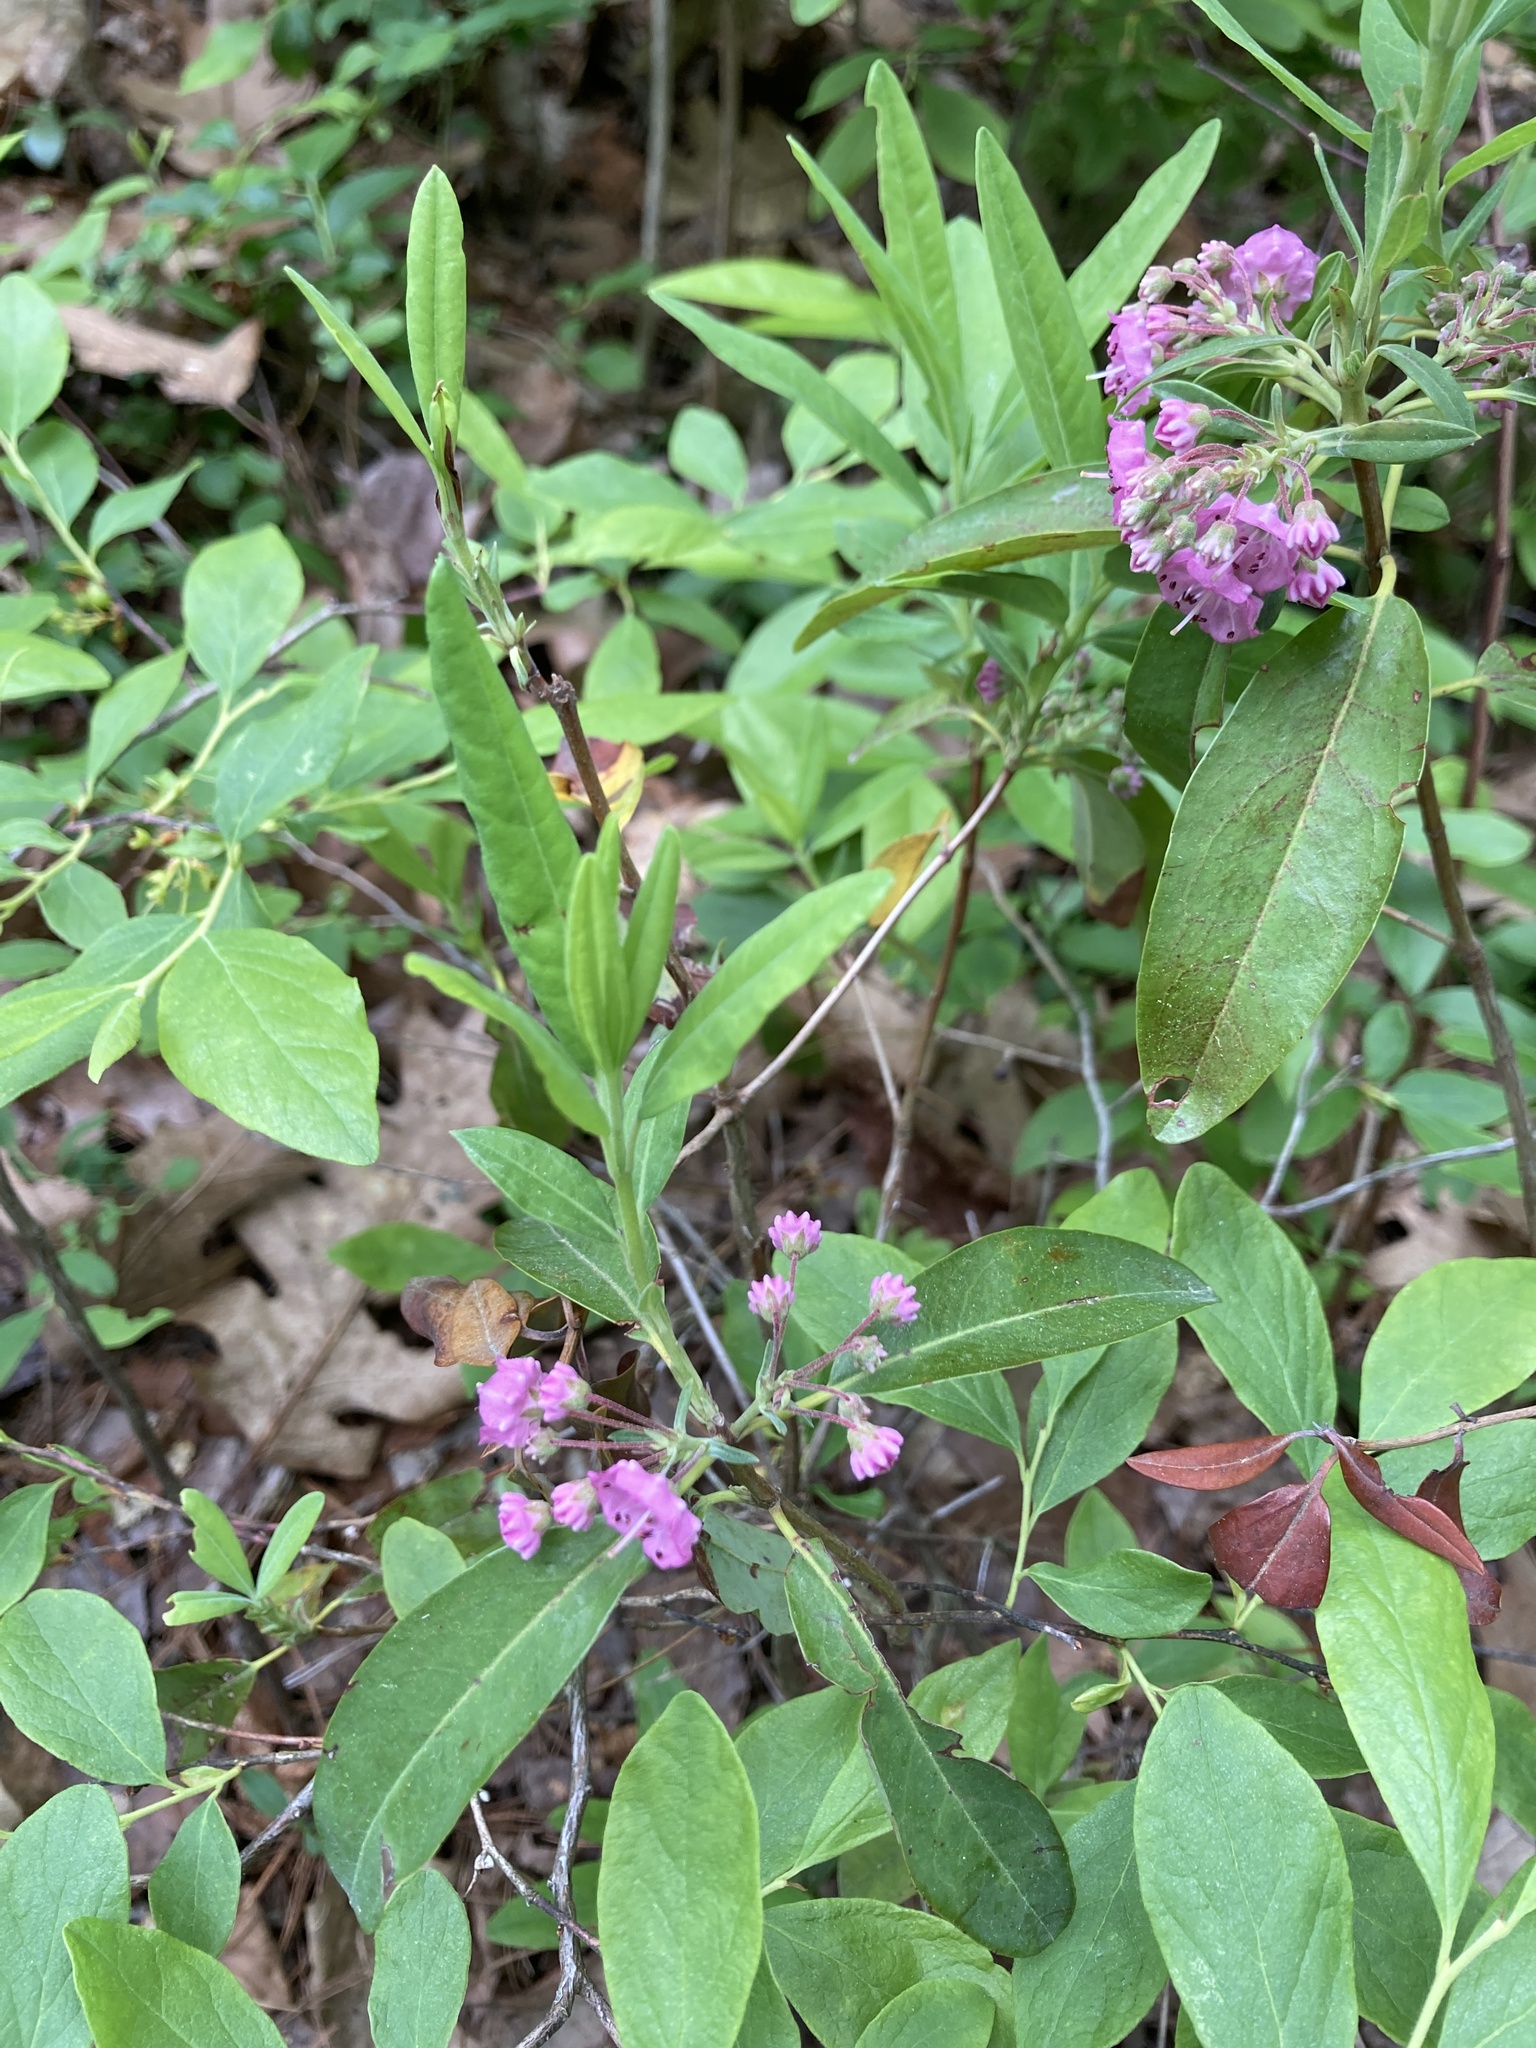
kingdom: Plantae
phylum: Tracheophyta
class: Magnoliopsida
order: Ericales
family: Ericaceae
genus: Kalmia
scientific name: Kalmia angustifolia
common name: Sheep-laurel
